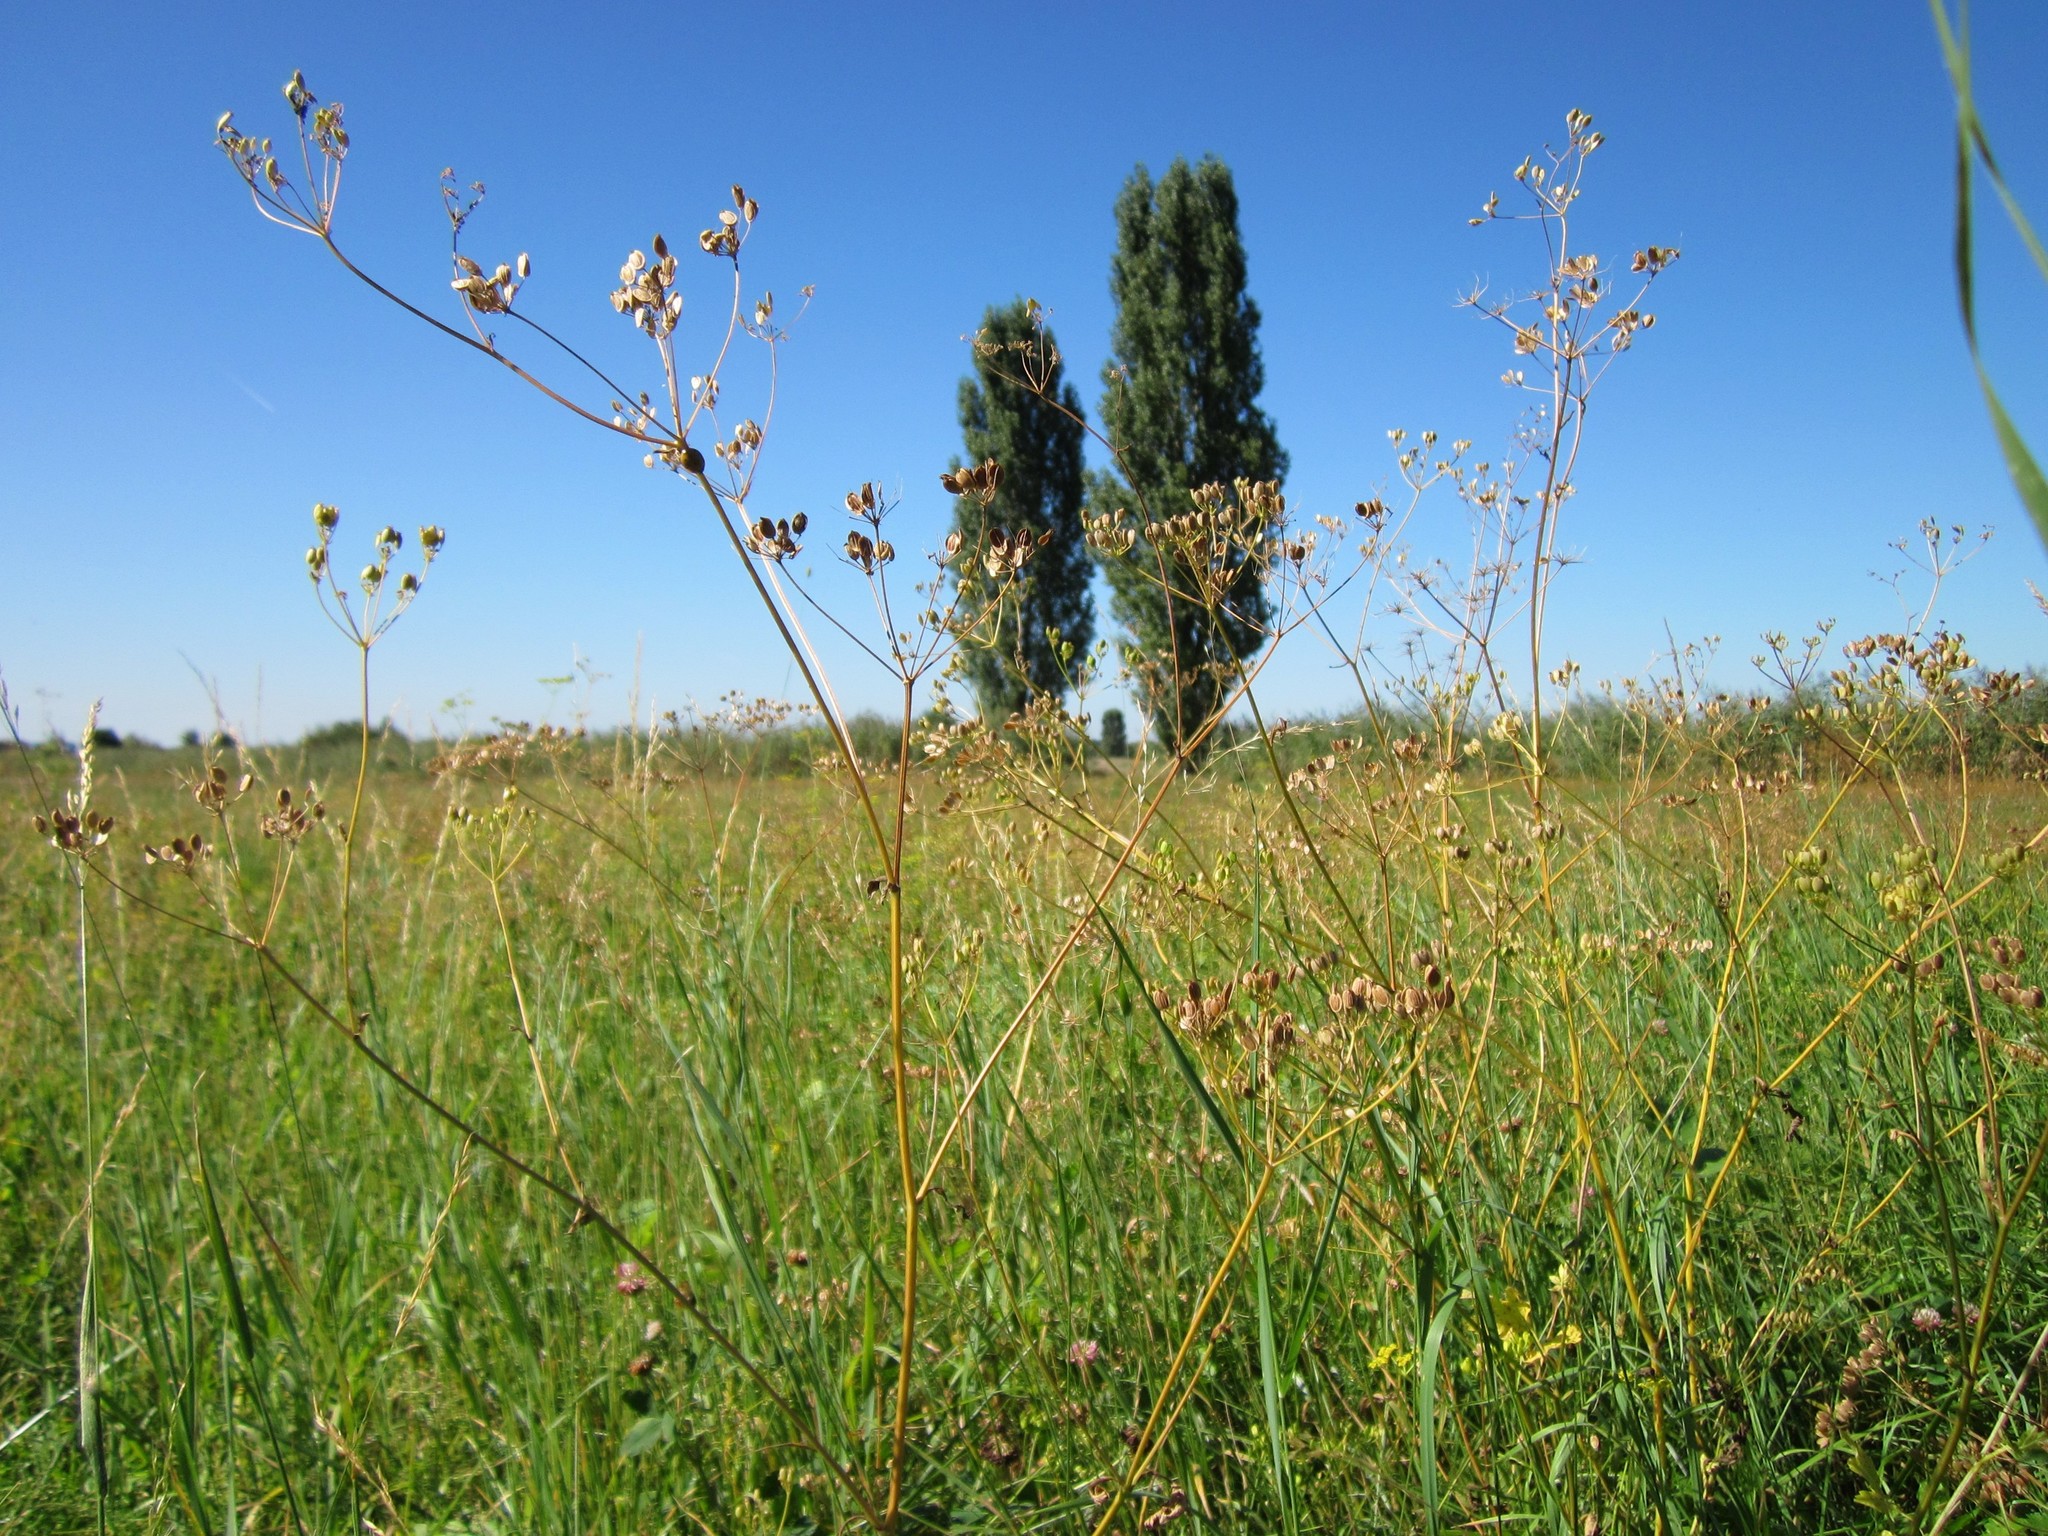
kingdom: Plantae
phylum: Tracheophyta
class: Magnoliopsida
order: Apiales
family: Apiaceae
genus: Pastinaca
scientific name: Pastinaca sativa
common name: Wild parsnip
